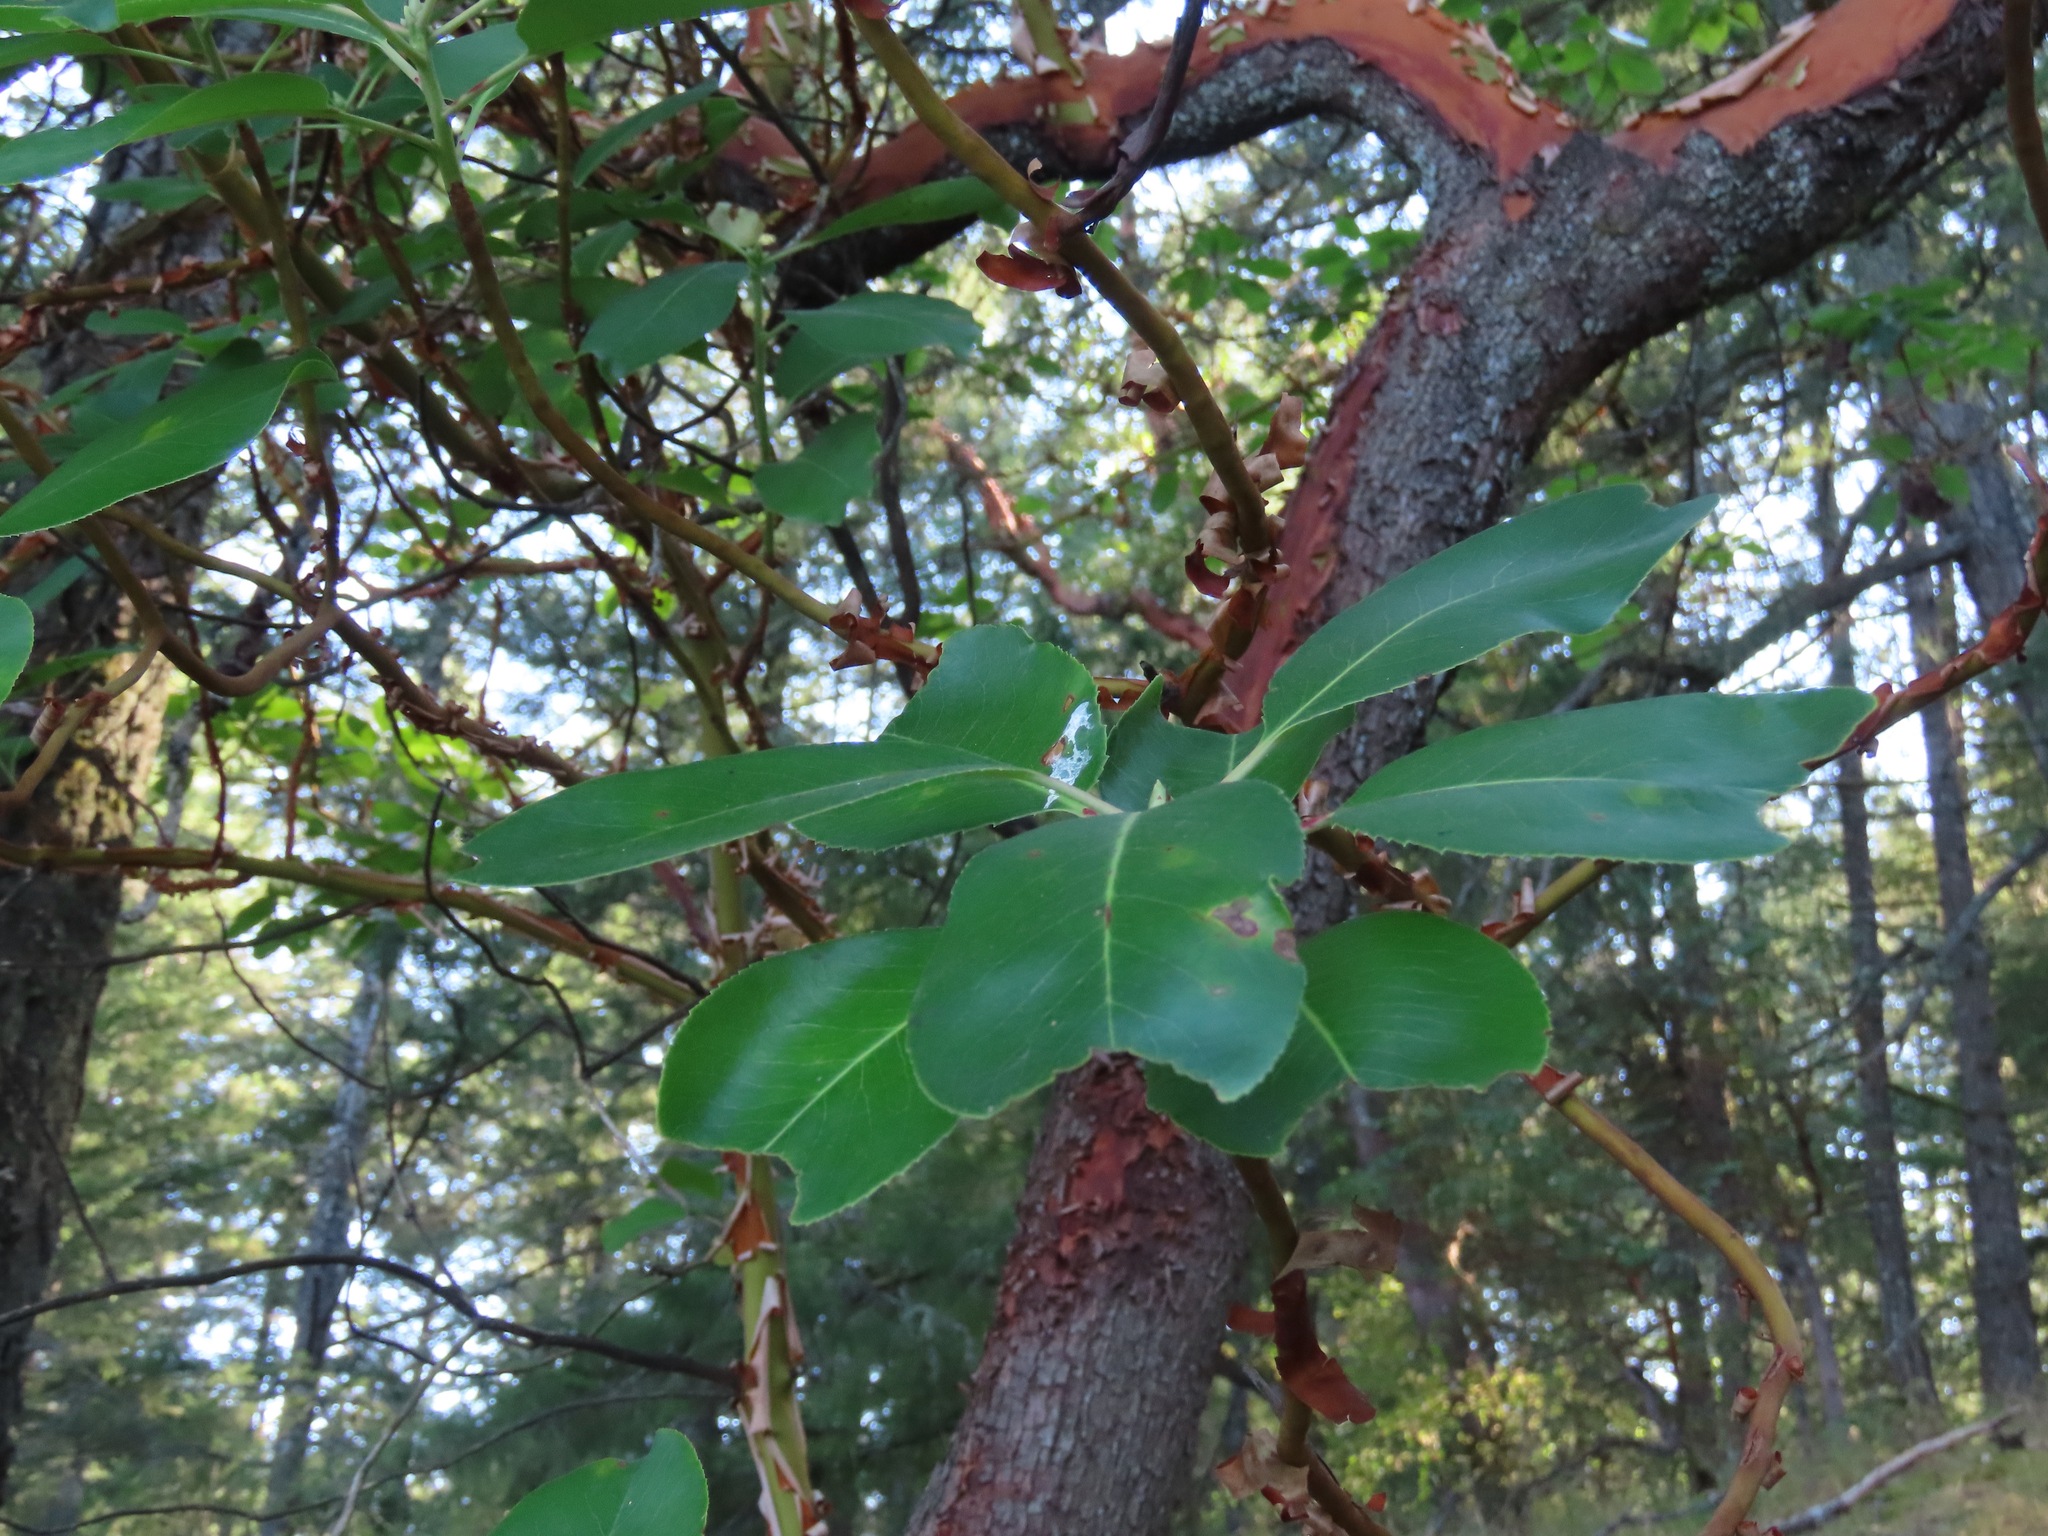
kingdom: Plantae
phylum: Tracheophyta
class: Magnoliopsida
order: Ericales
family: Ericaceae
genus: Arbutus
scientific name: Arbutus menziesii
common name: Pacific madrone
